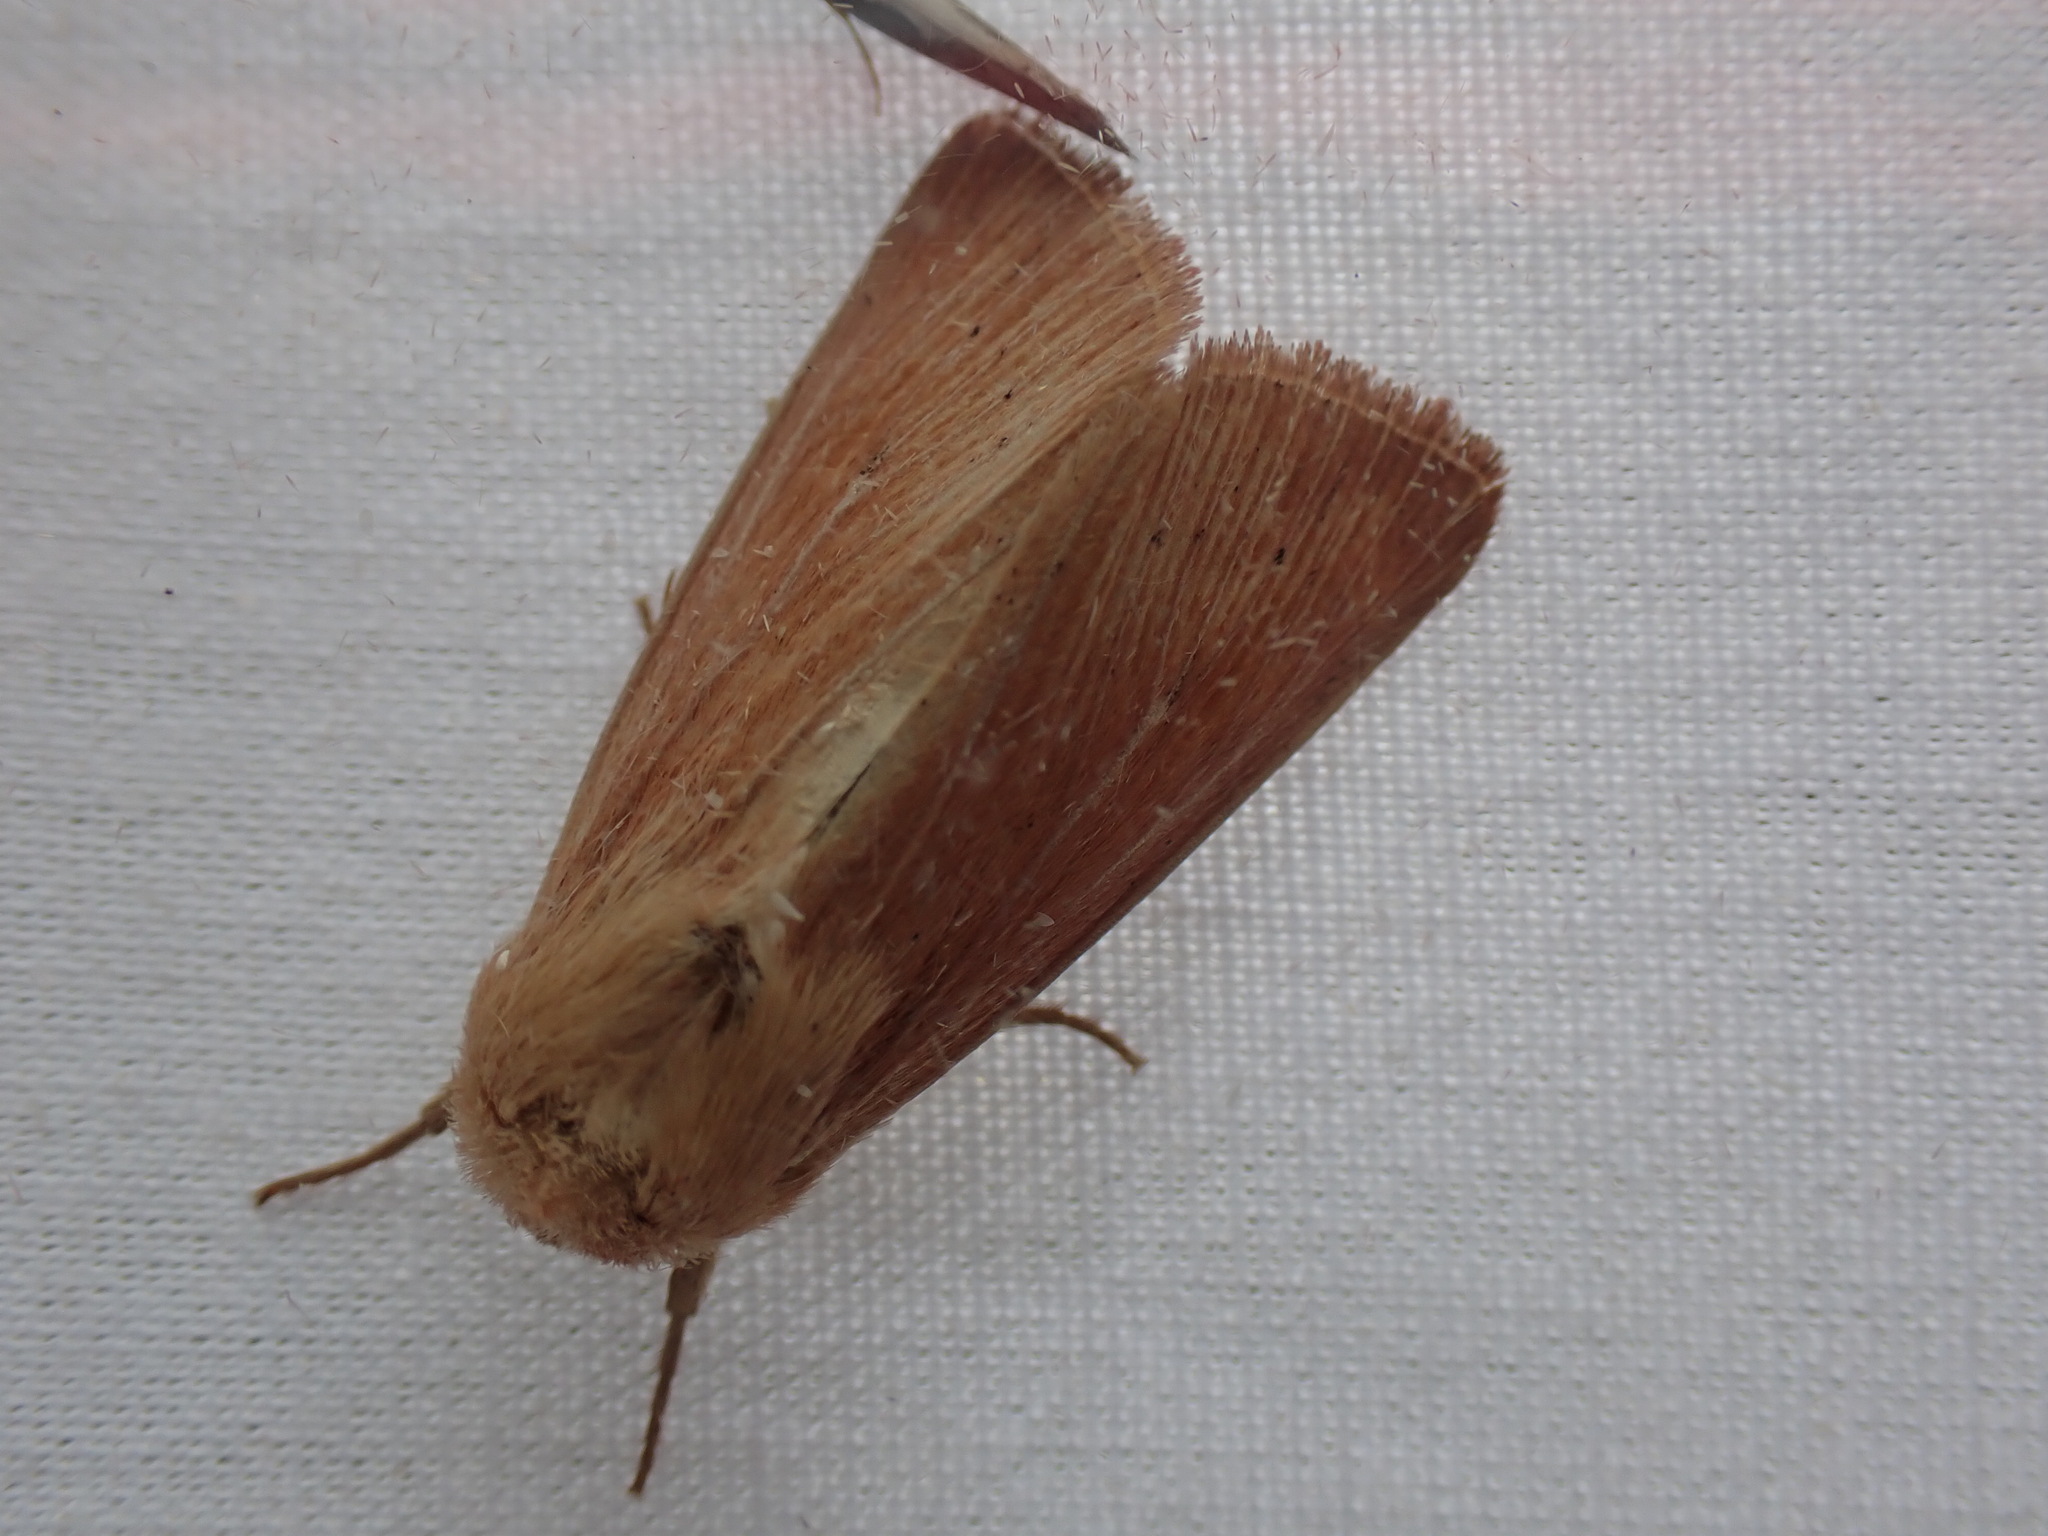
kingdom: Animalia
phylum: Arthropoda
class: Insecta
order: Lepidoptera
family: Noctuidae
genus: Mythimna
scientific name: Mythimna oxygala
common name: Lesser wainscot
